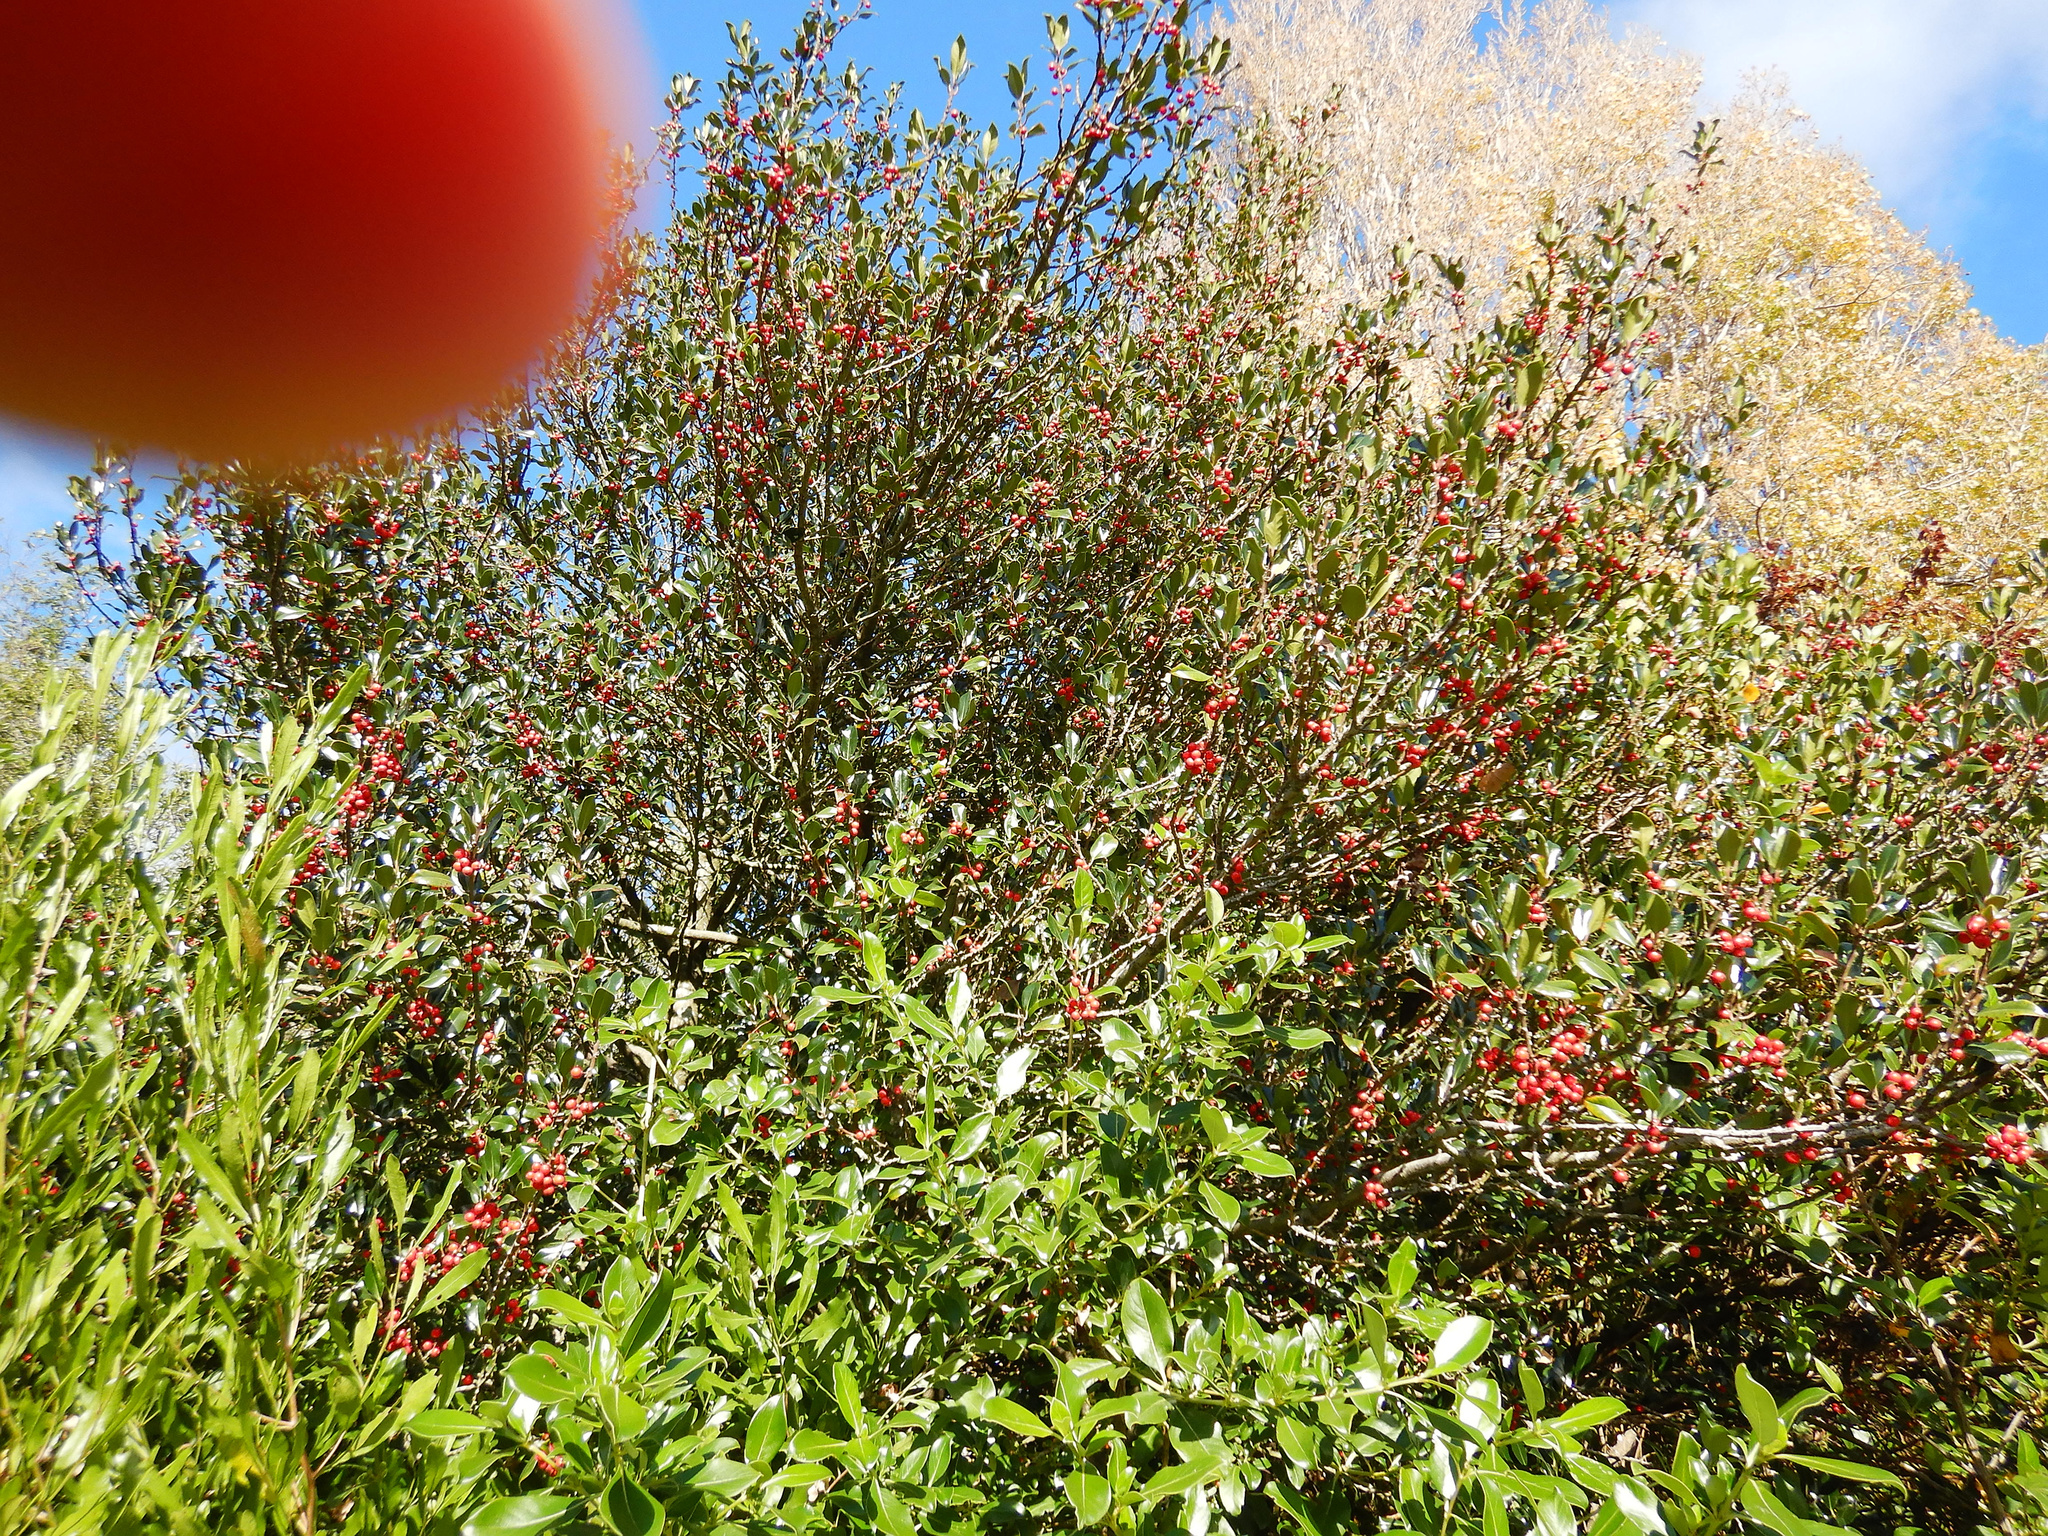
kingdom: Plantae
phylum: Tracheophyta
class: Magnoliopsida
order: Aquifoliales
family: Aquifoliaceae
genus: Ilex
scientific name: Ilex aquifolium
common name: English holly
